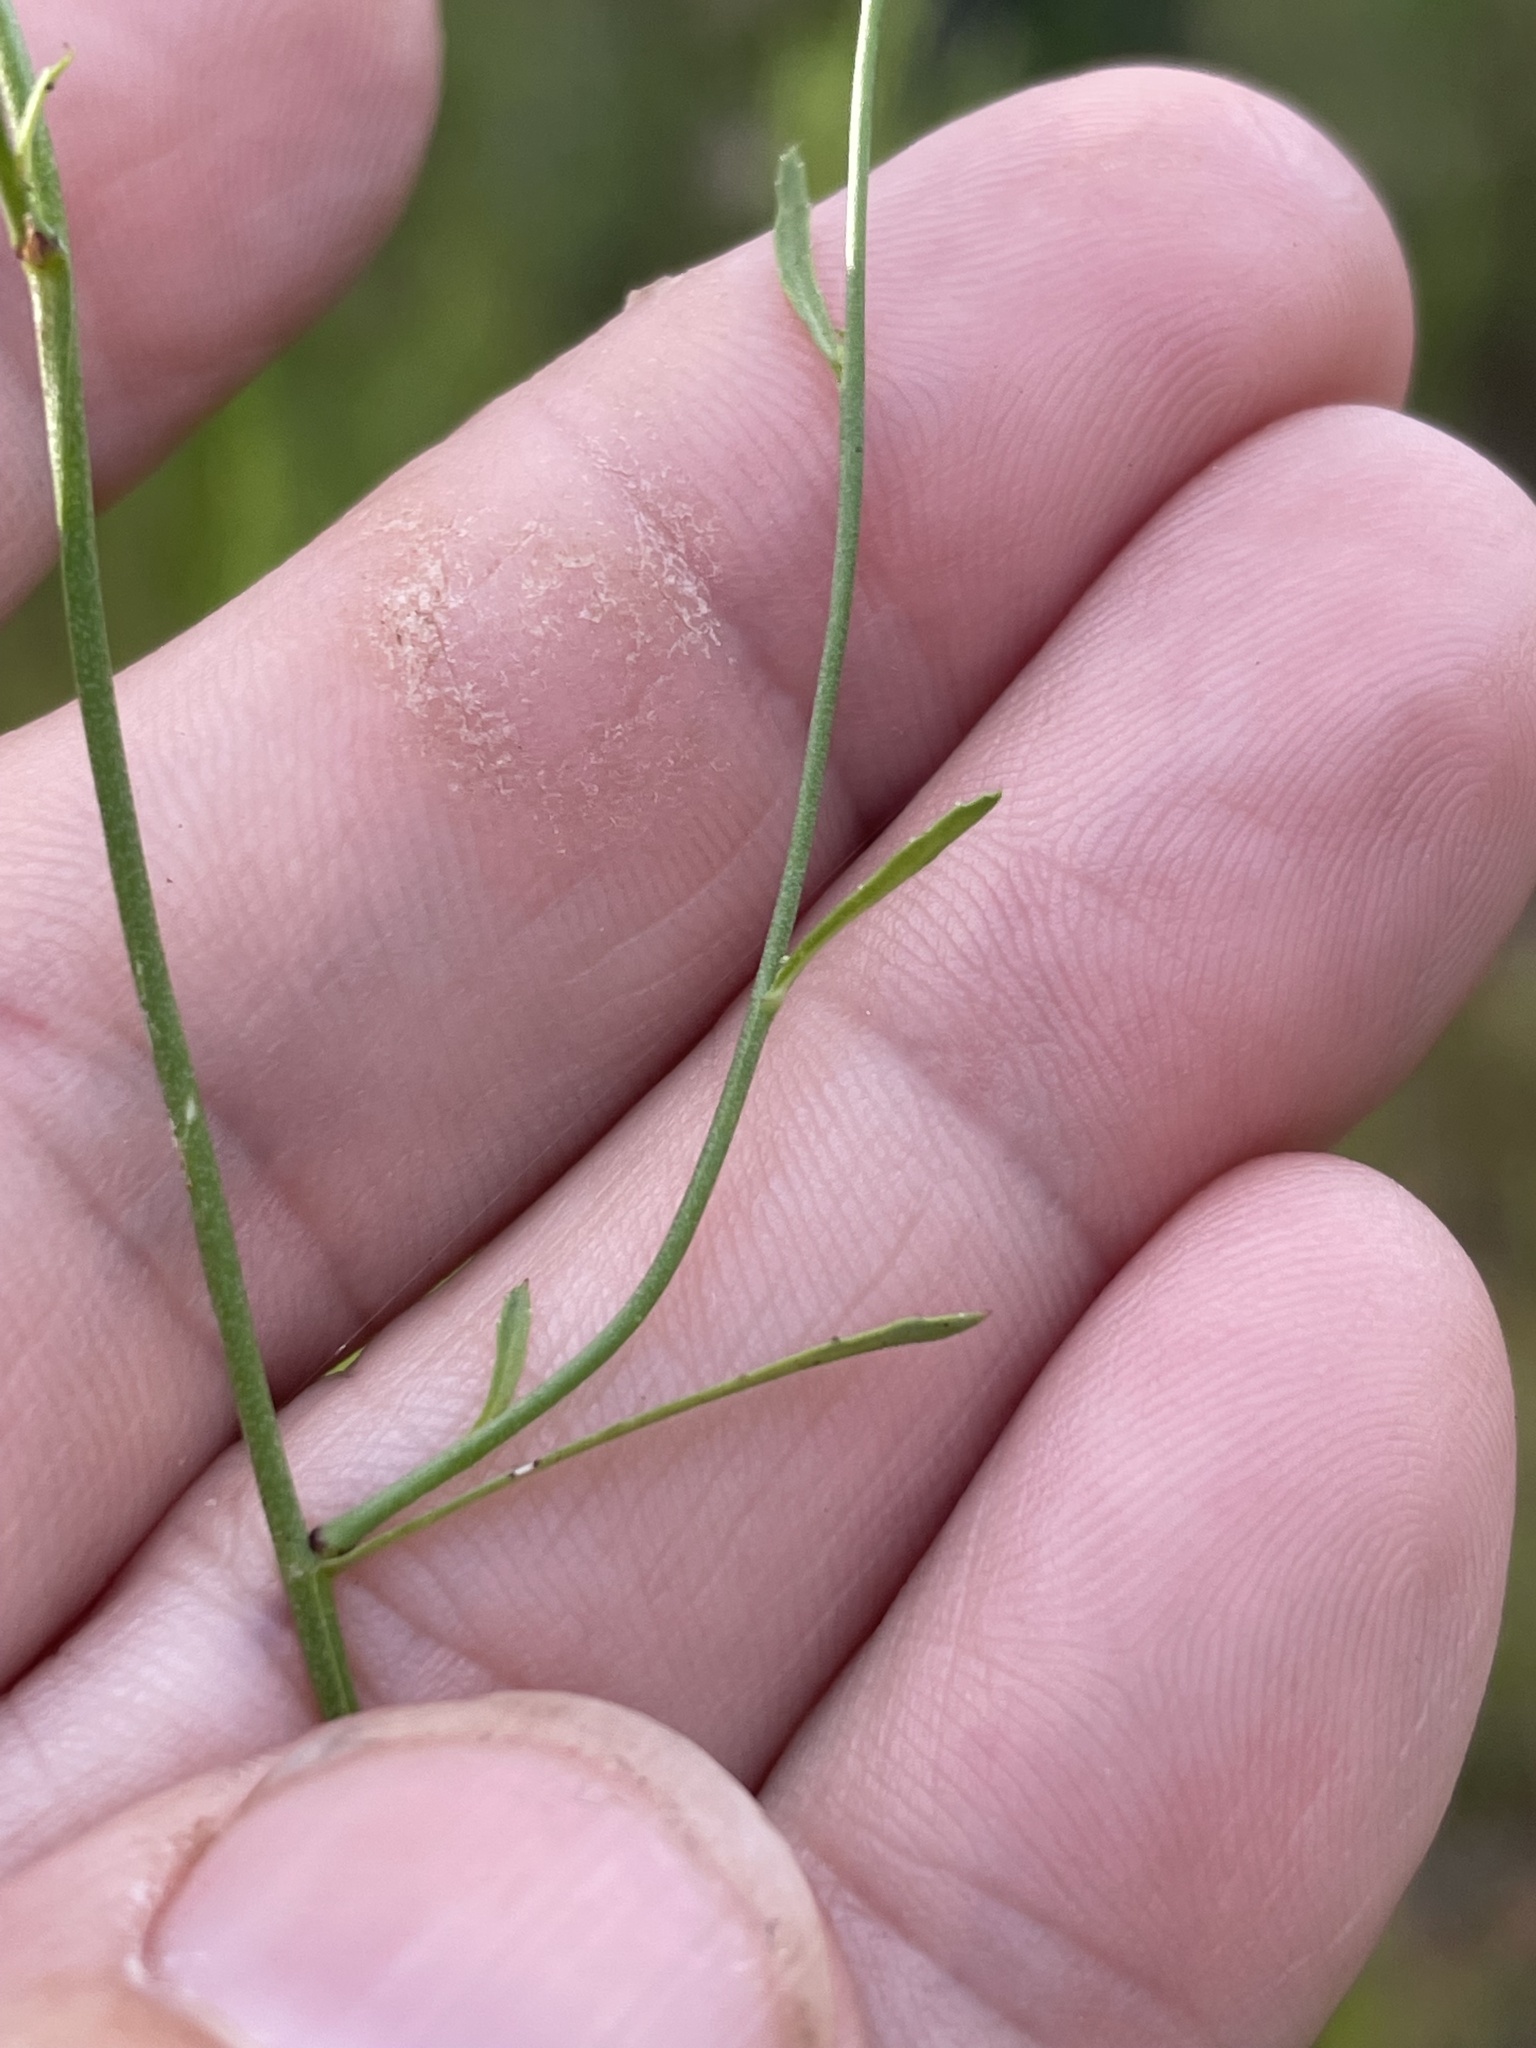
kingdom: Plantae
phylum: Tracheophyta
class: Magnoliopsida
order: Asterales
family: Campanulaceae
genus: Lobelia
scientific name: Lobelia nuttallii
